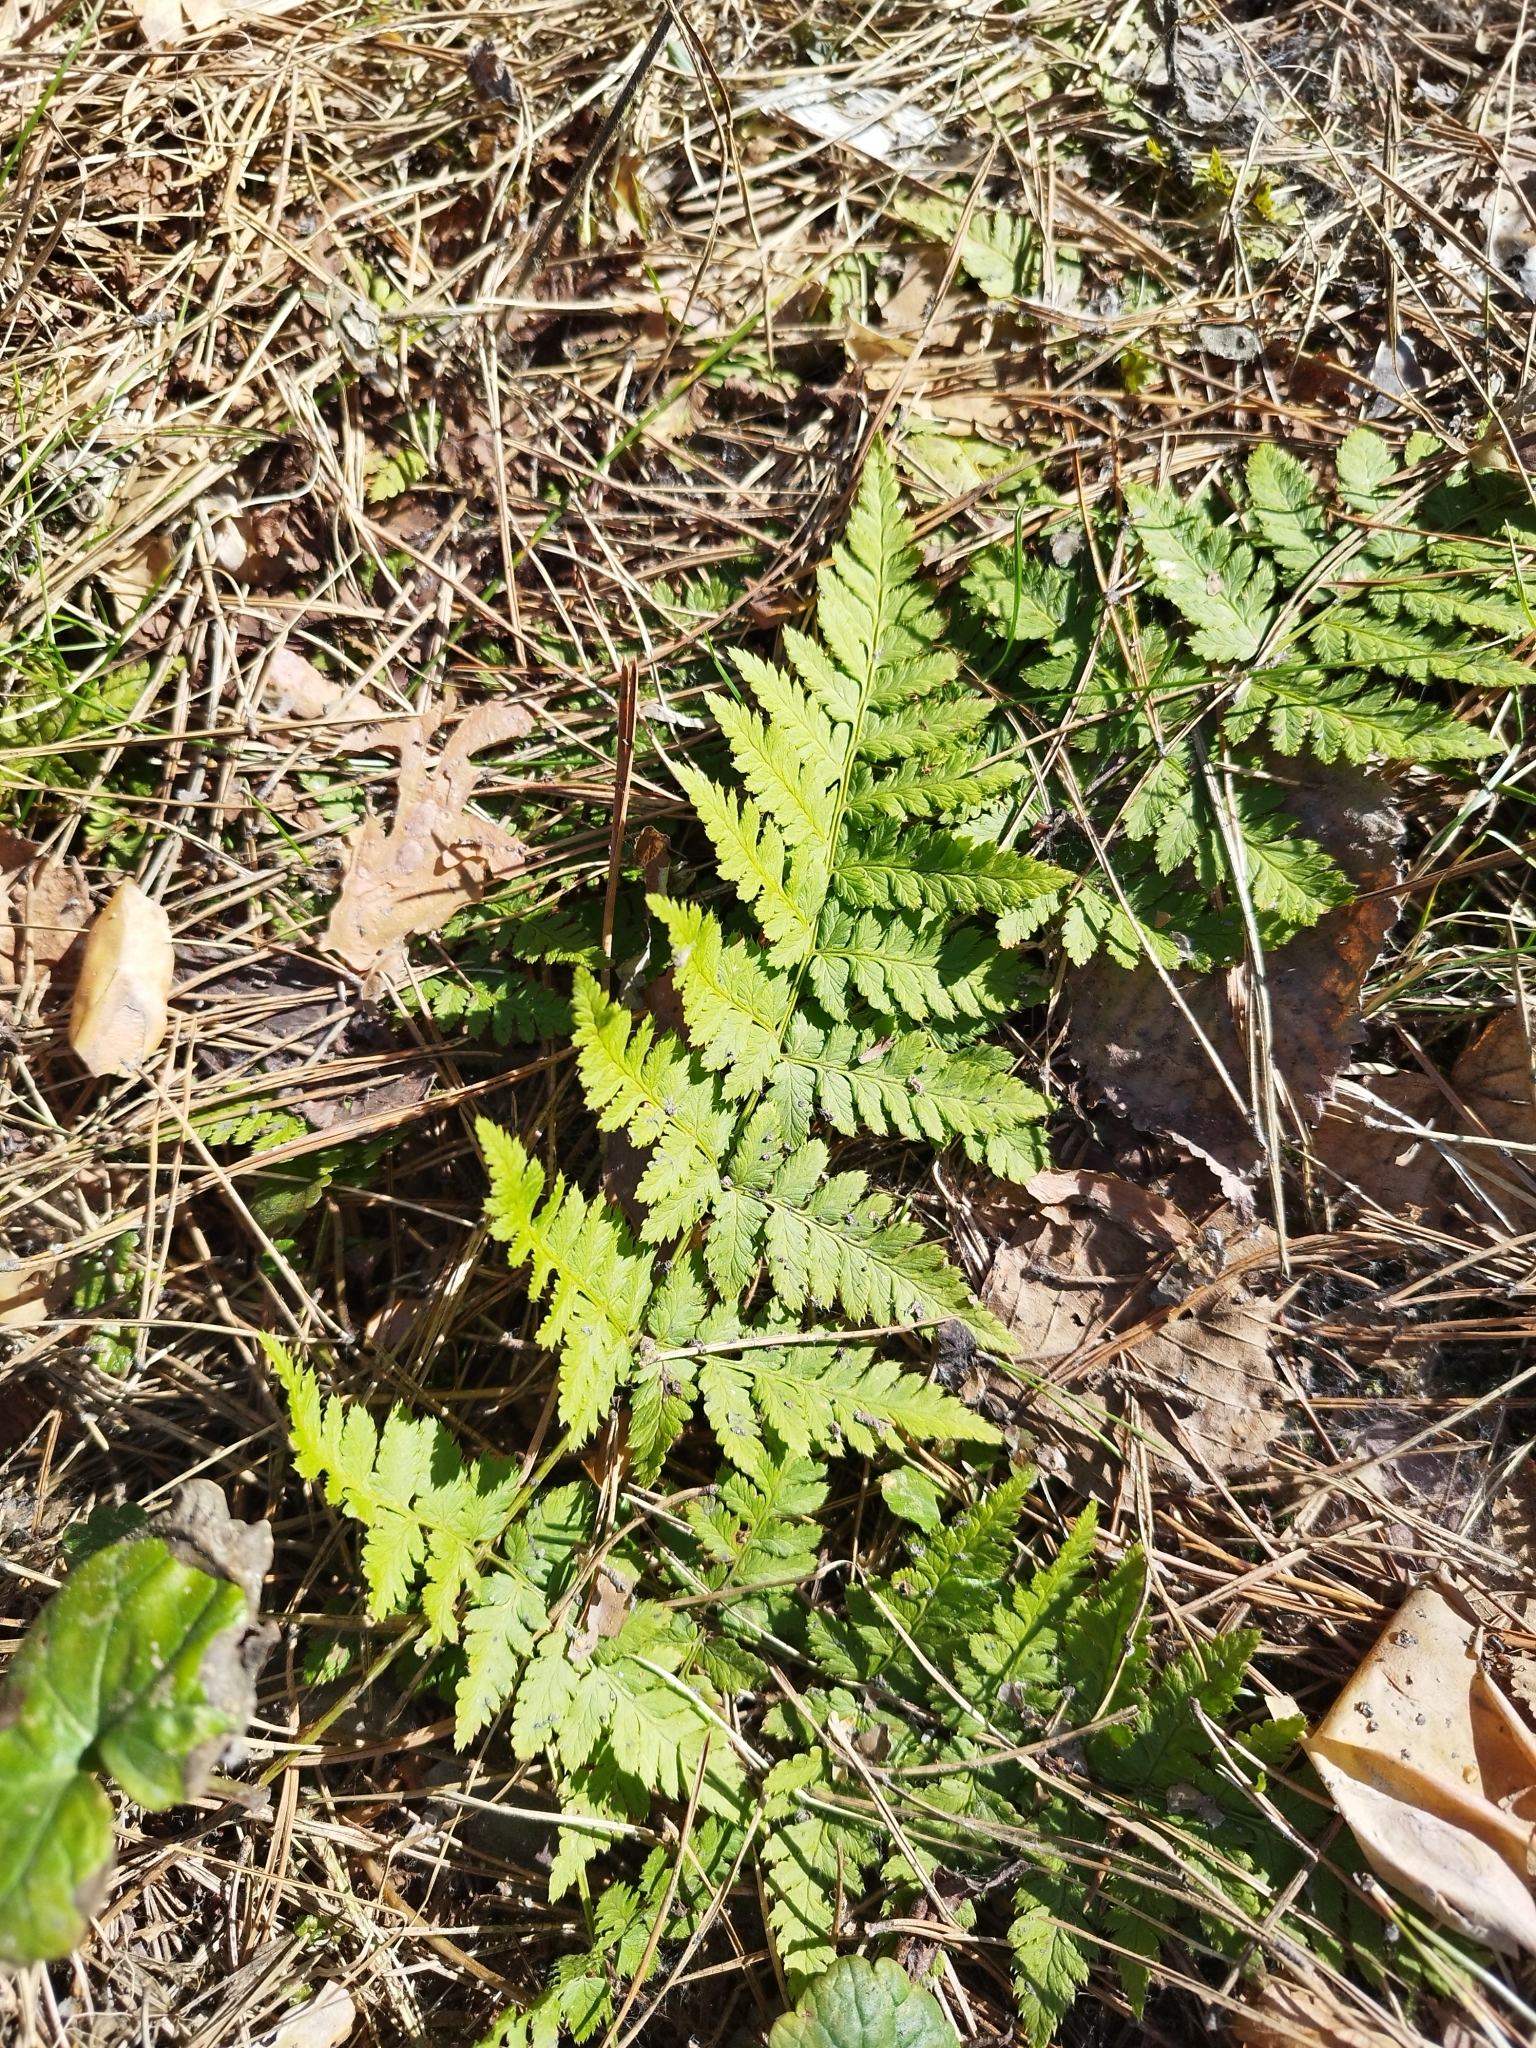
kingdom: Plantae
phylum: Tracheophyta
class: Polypodiopsida
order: Polypodiales
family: Dryopteridaceae
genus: Dryopteris
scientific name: Dryopteris carthusiana
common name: Narrow buckler-fern
